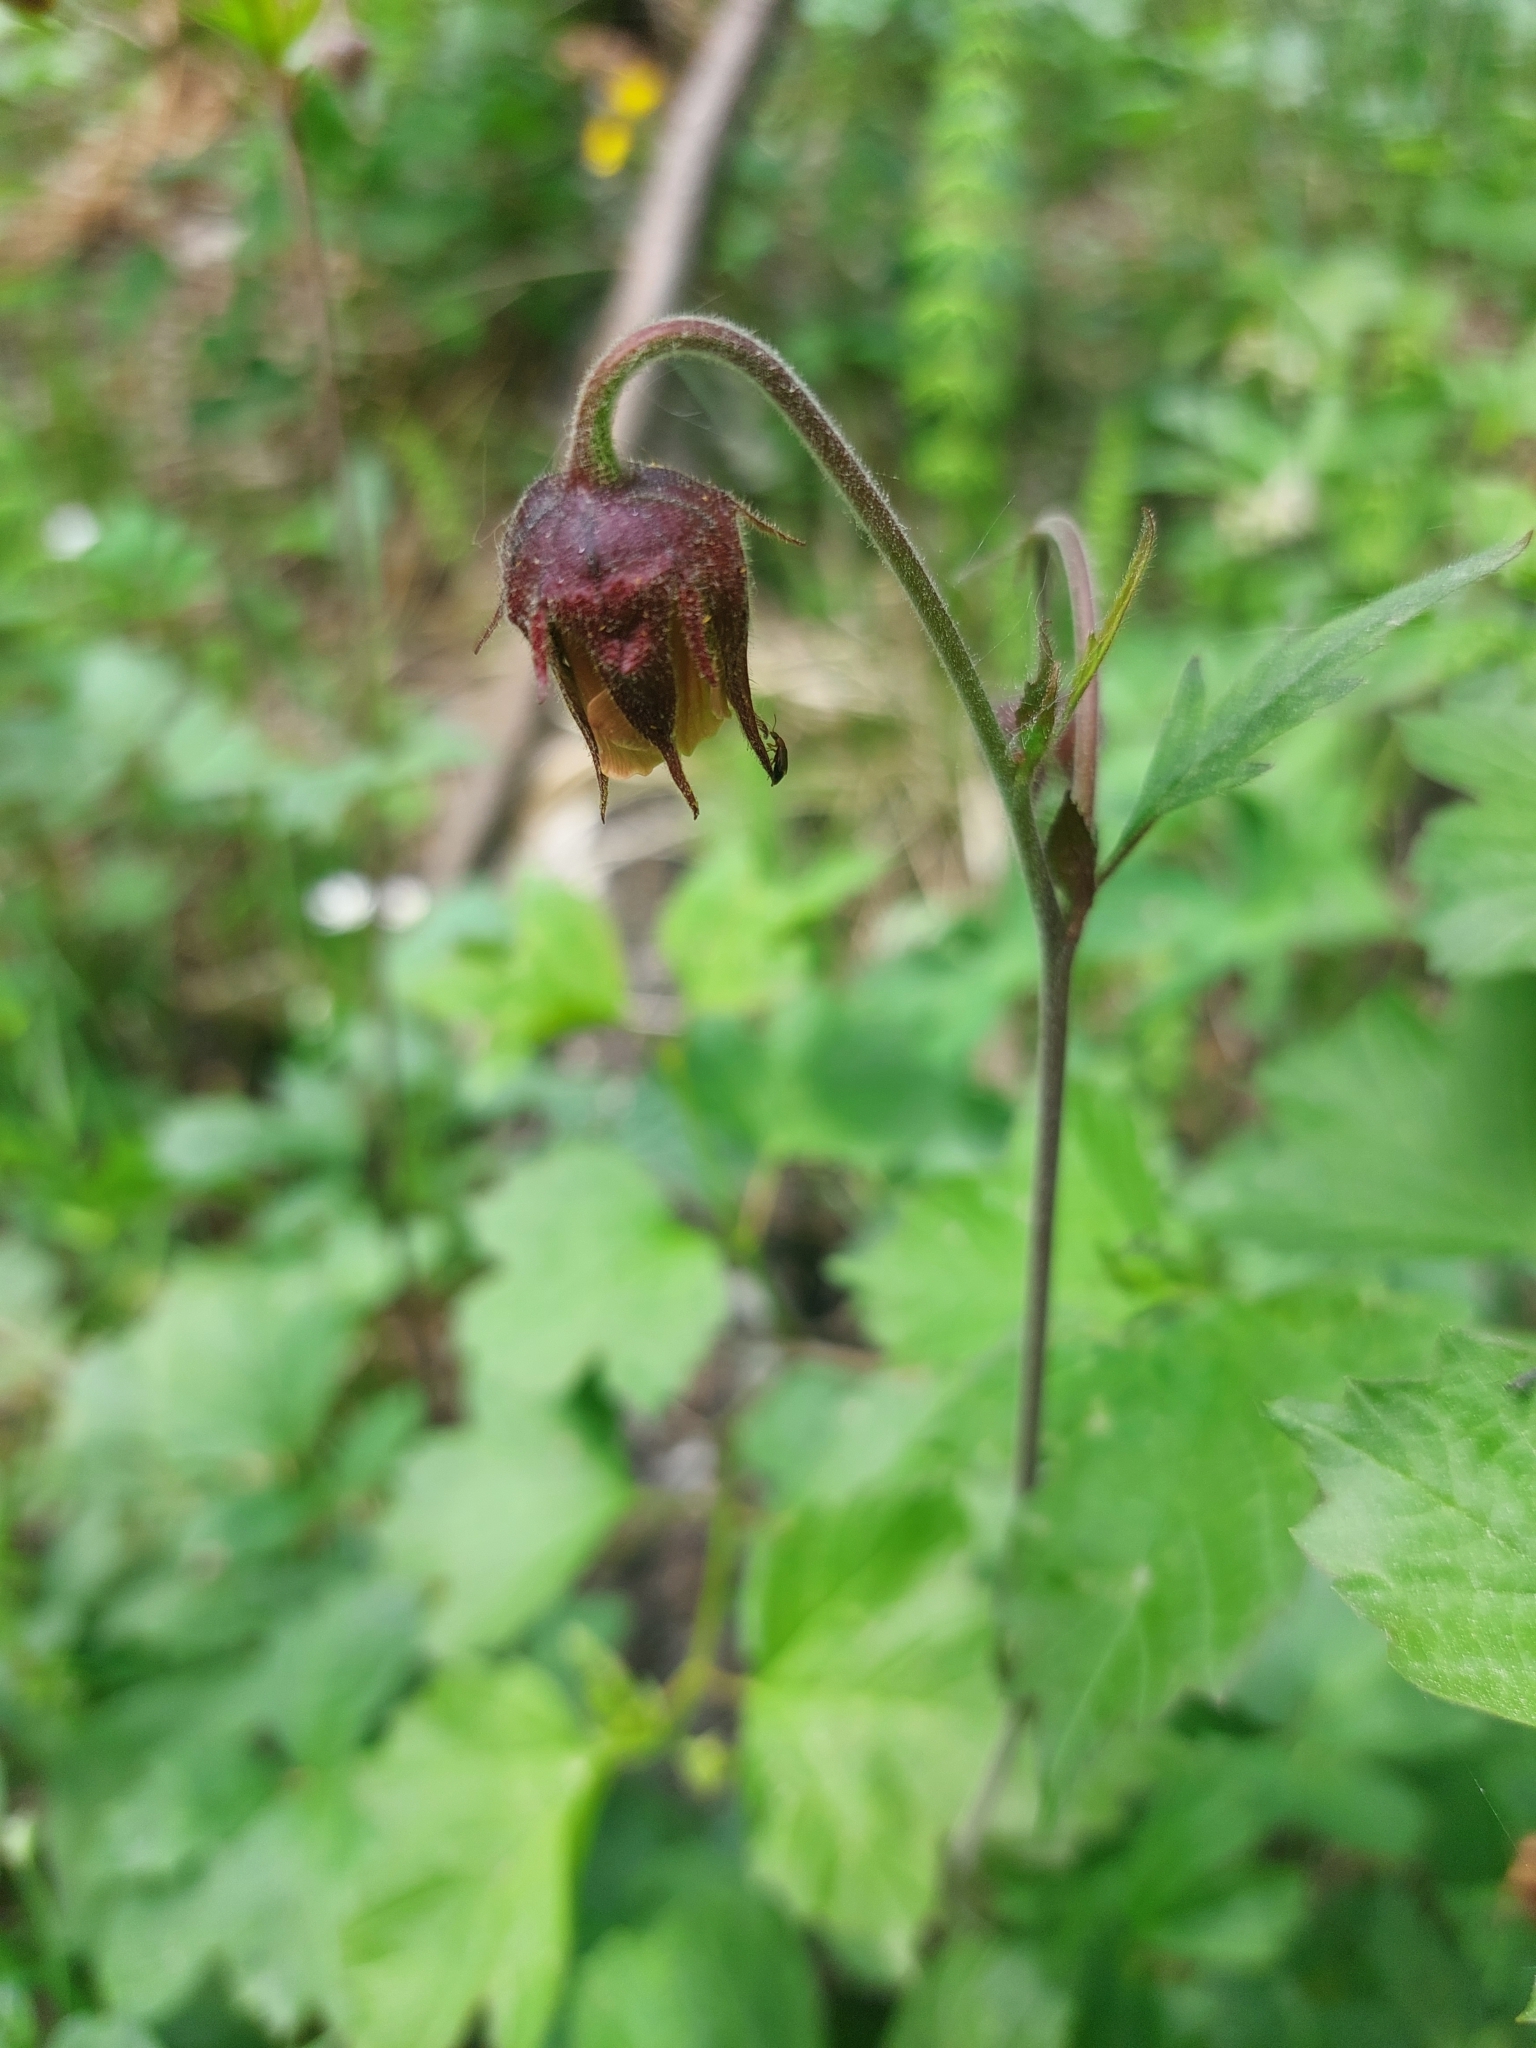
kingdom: Plantae
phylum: Tracheophyta
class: Magnoliopsida
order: Rosales
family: Rosaceae
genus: Geum
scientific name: Geum rivale
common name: Water avens
